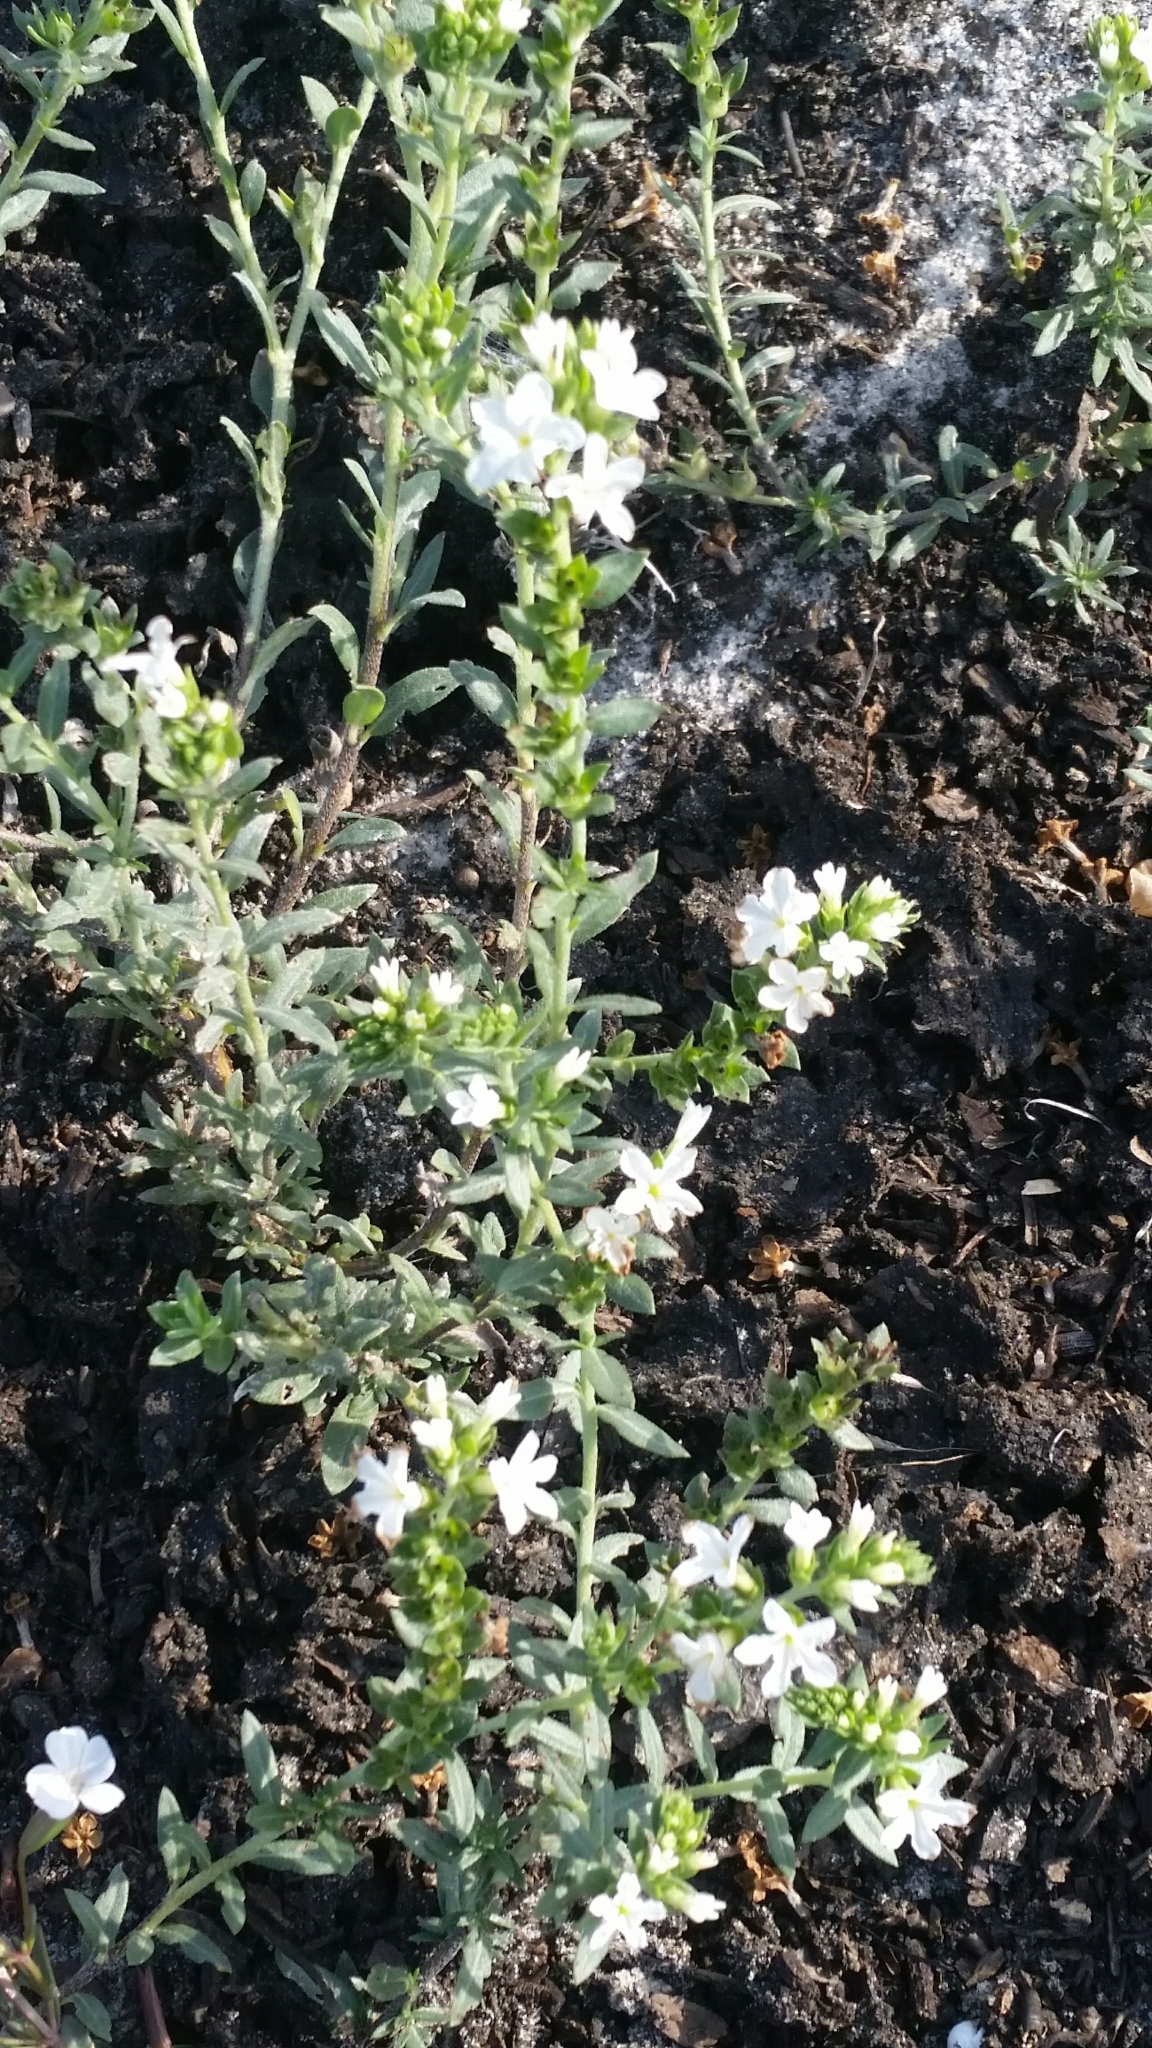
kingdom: Plantae
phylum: Tracheophyta
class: Magnoliopsida
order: Boraginales
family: Heliotropiaceae
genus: Euploca
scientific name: Euploca polyphylla
